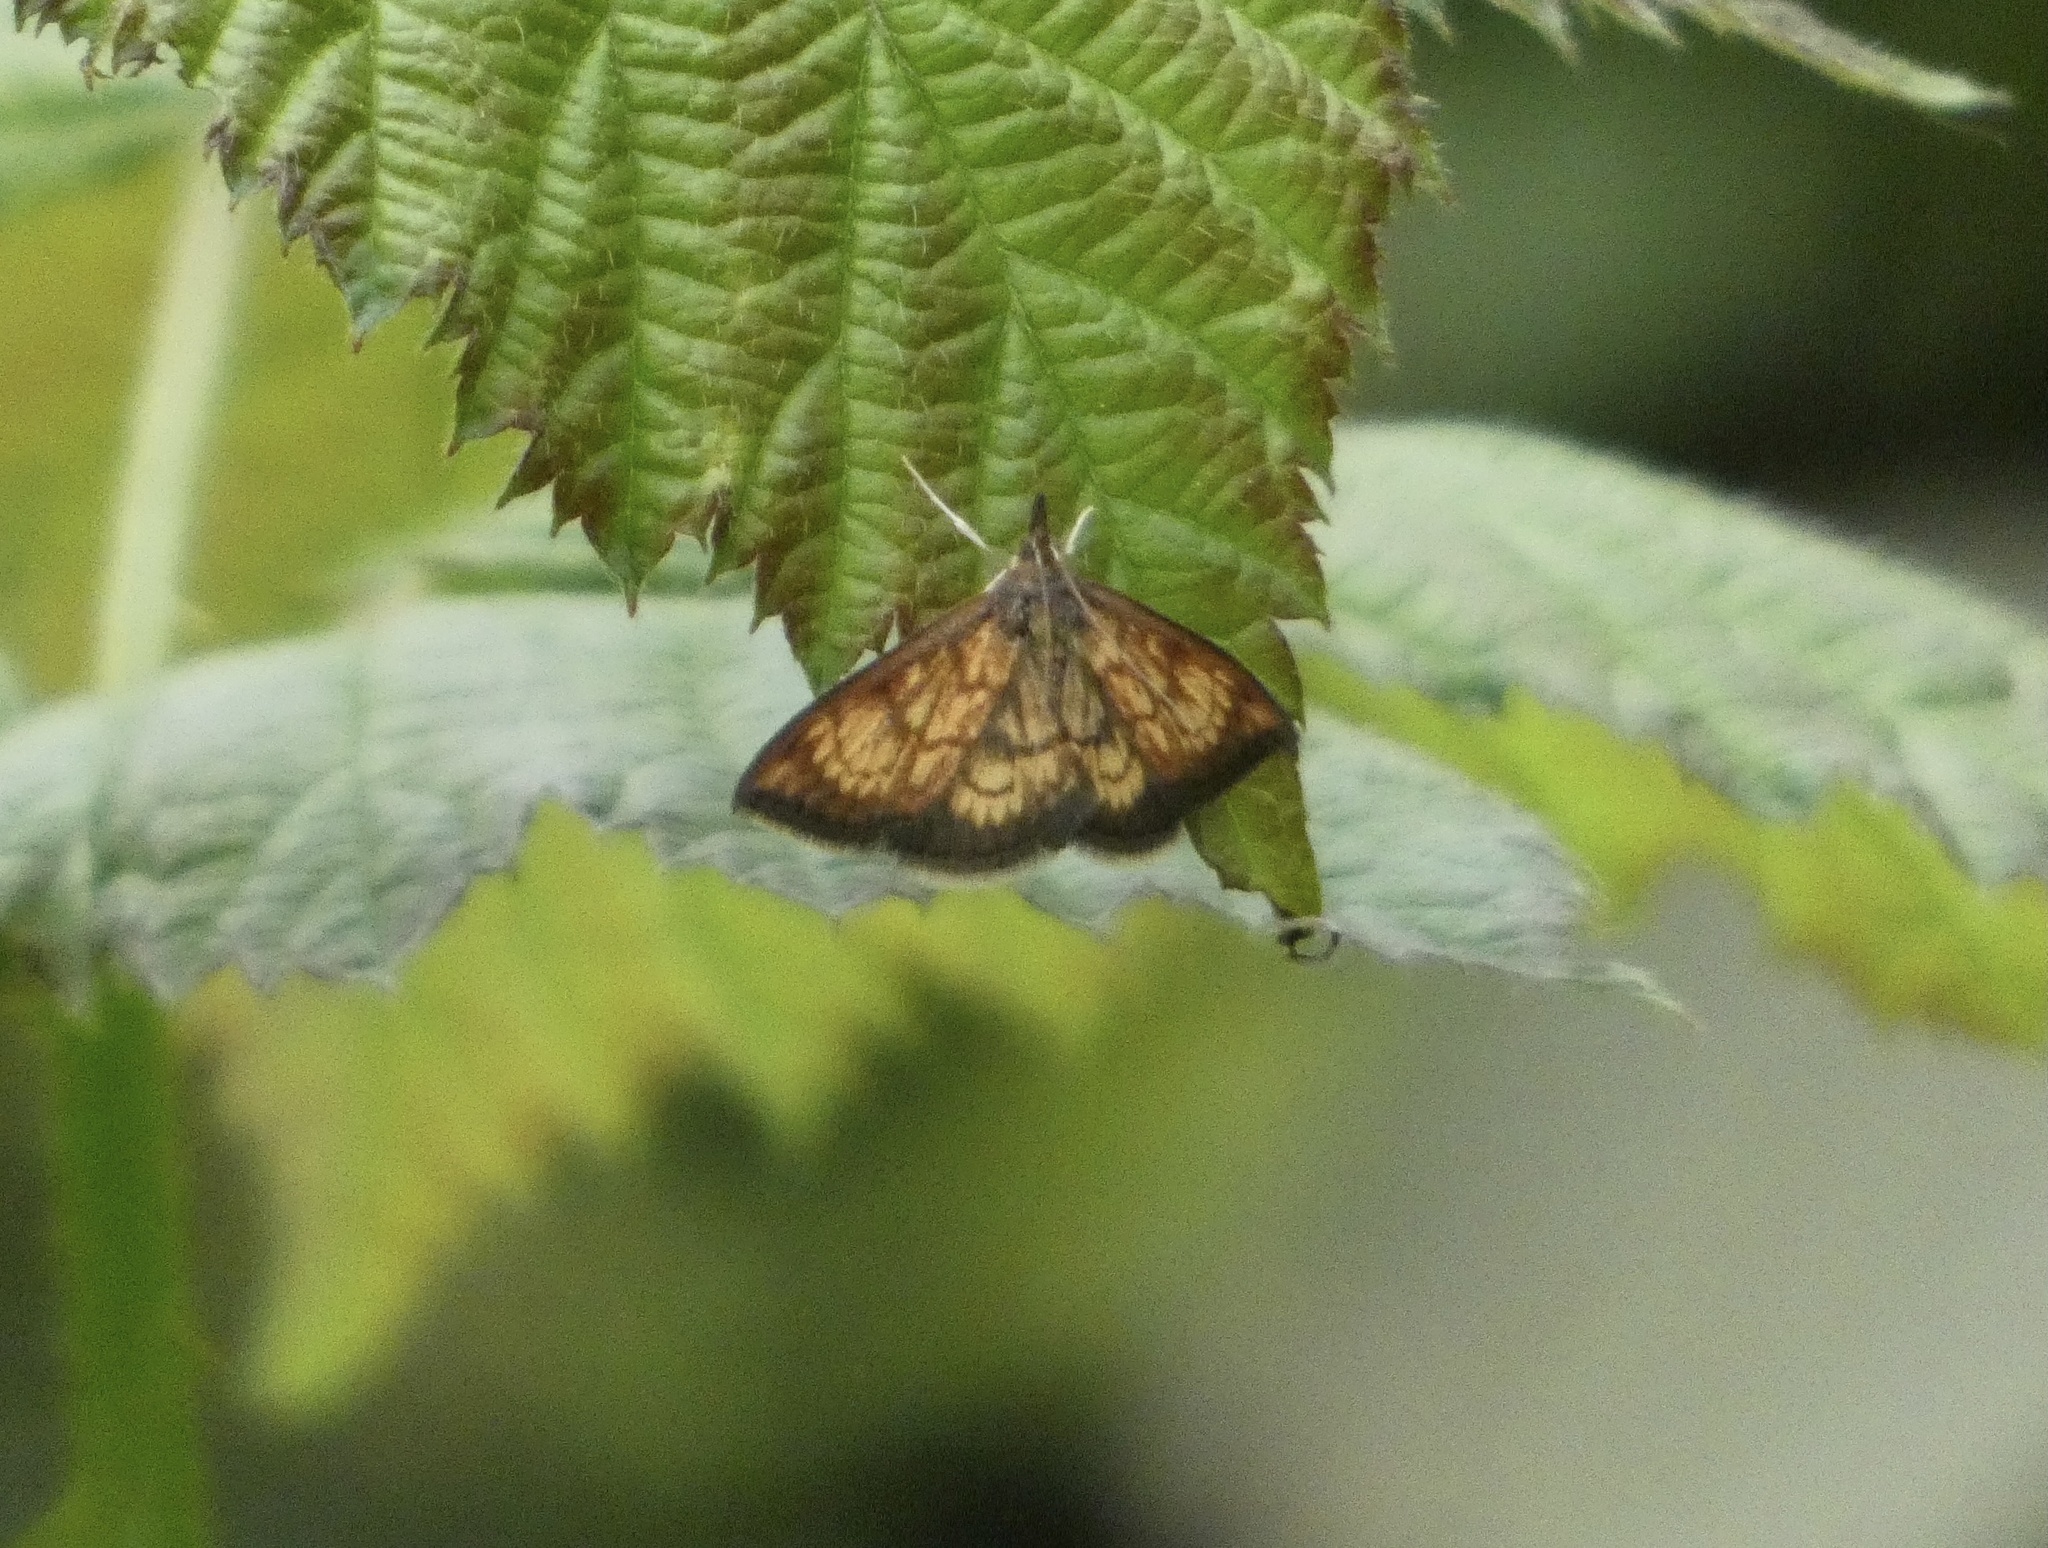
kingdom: Animalia
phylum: Arthropoda
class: Insecta
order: Lepidoptera
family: Crambidae
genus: Ecpyrrhorrhoe
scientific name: Ecpyrrhorrhoe rubiginalis
